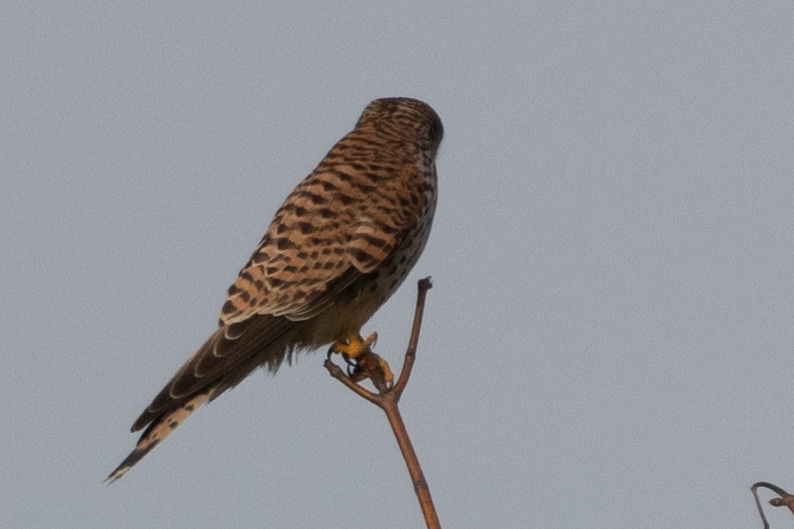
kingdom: Animalia
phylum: Chordata
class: Aves
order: Falconiformes
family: Falconidae
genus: Falco
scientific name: Falco tinnunculus
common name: Common kestrel
